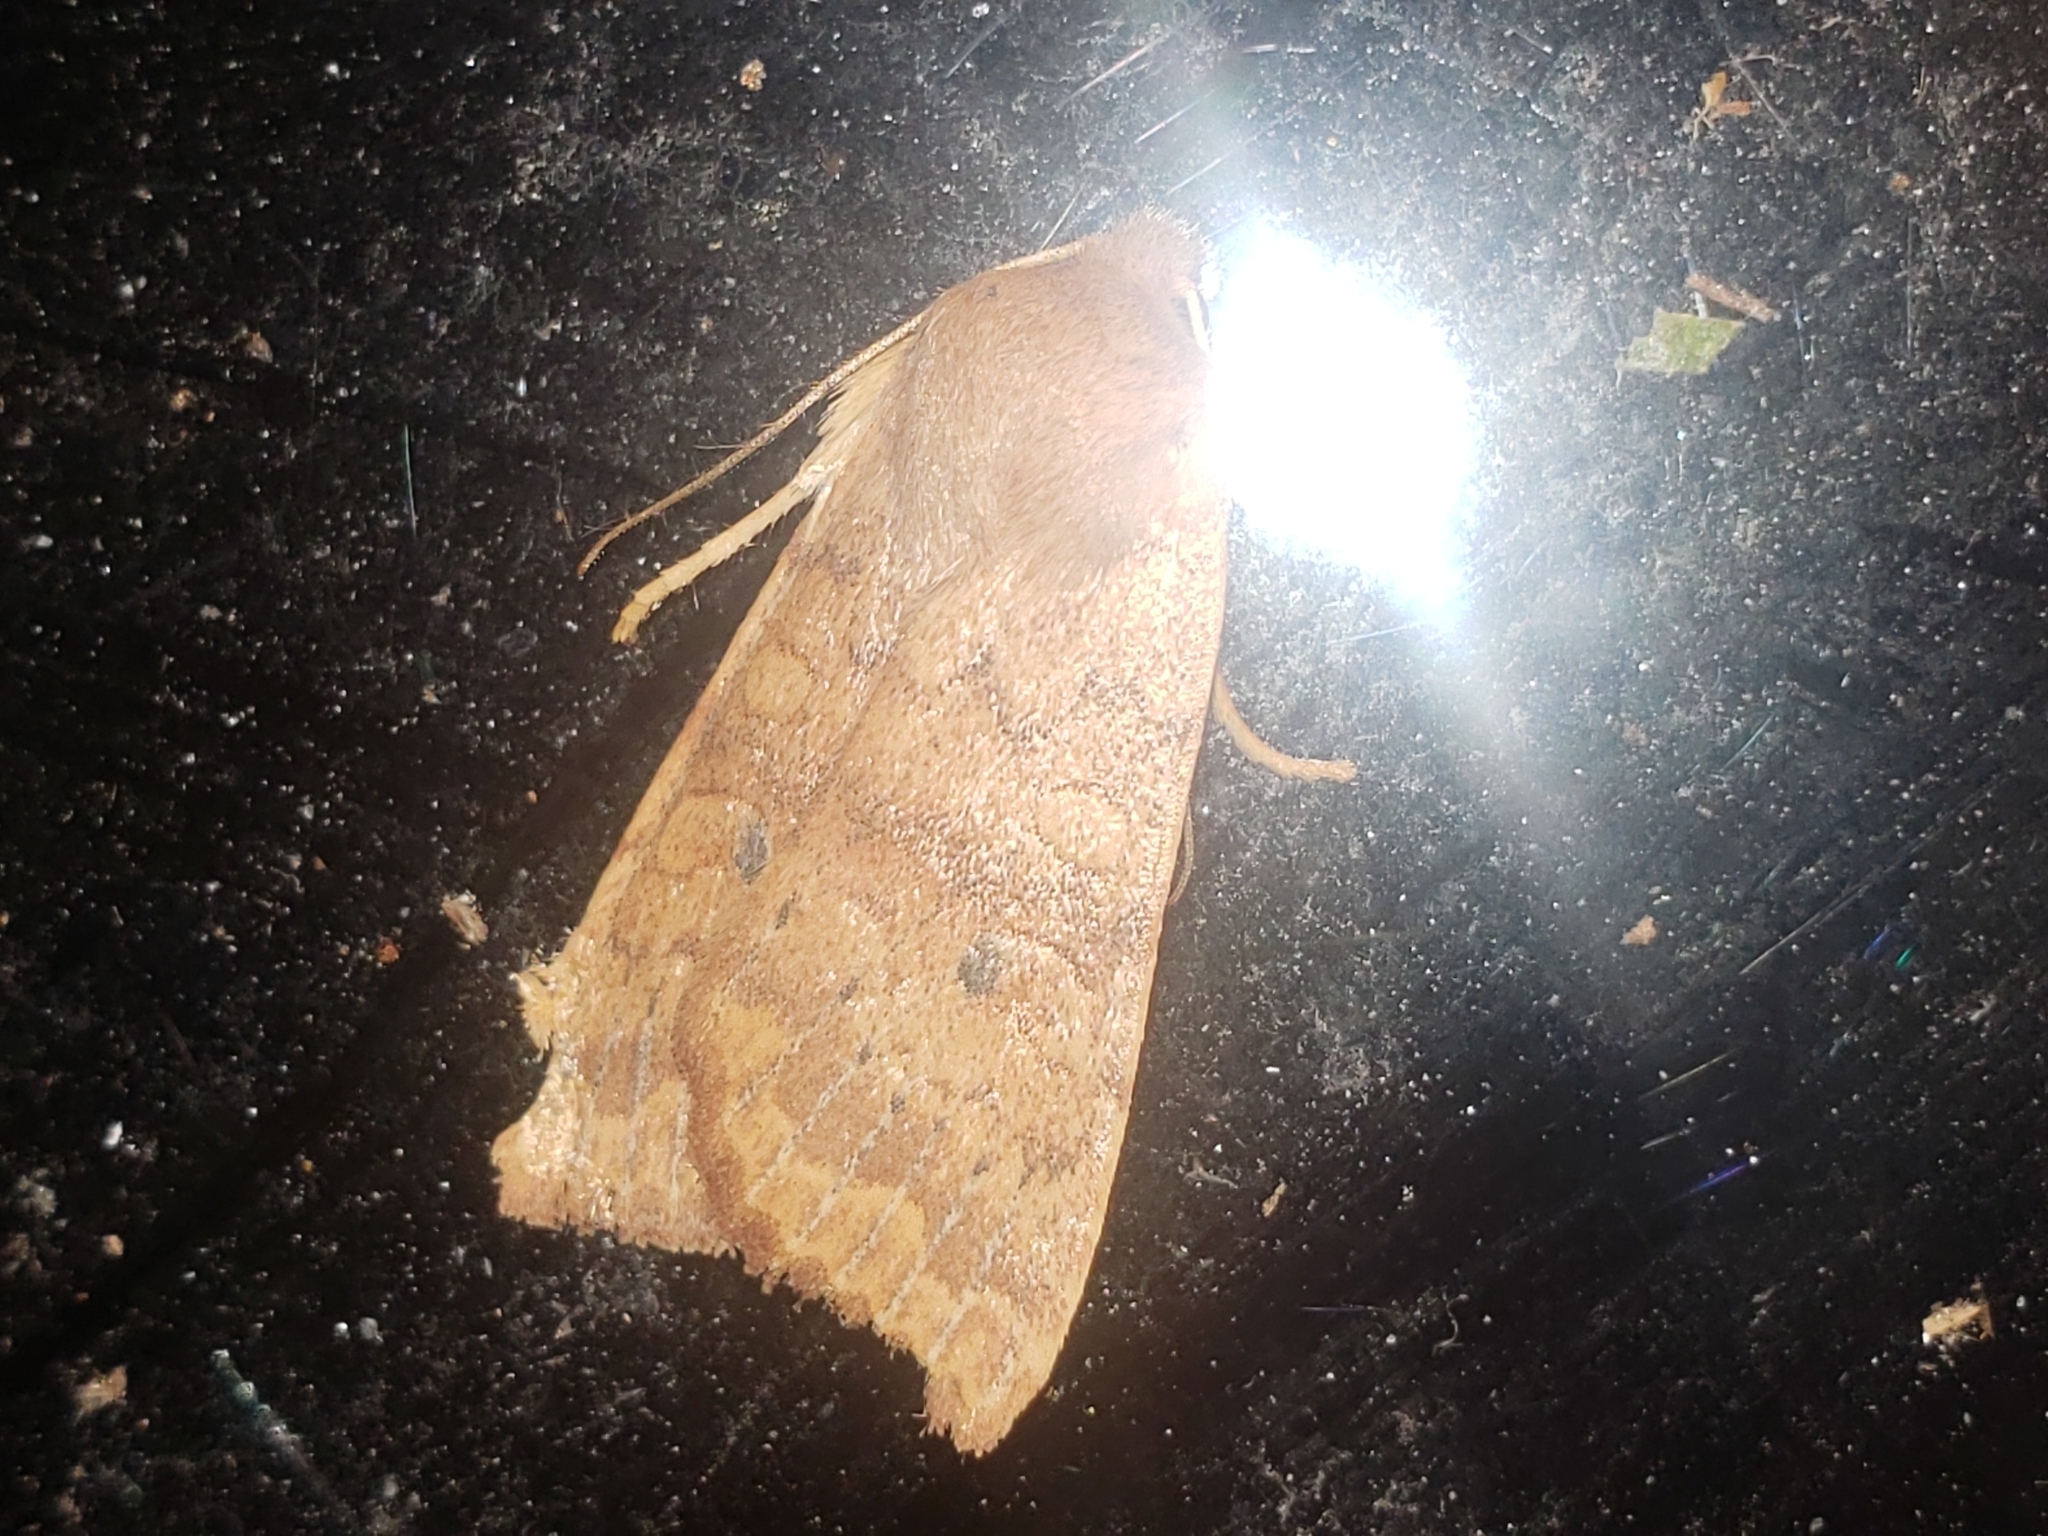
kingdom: Animalia
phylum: Arthropoda
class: Insecta
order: Lepidoptera
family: Noctuidae
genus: Agrochola
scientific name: Agrochola bicolorago
